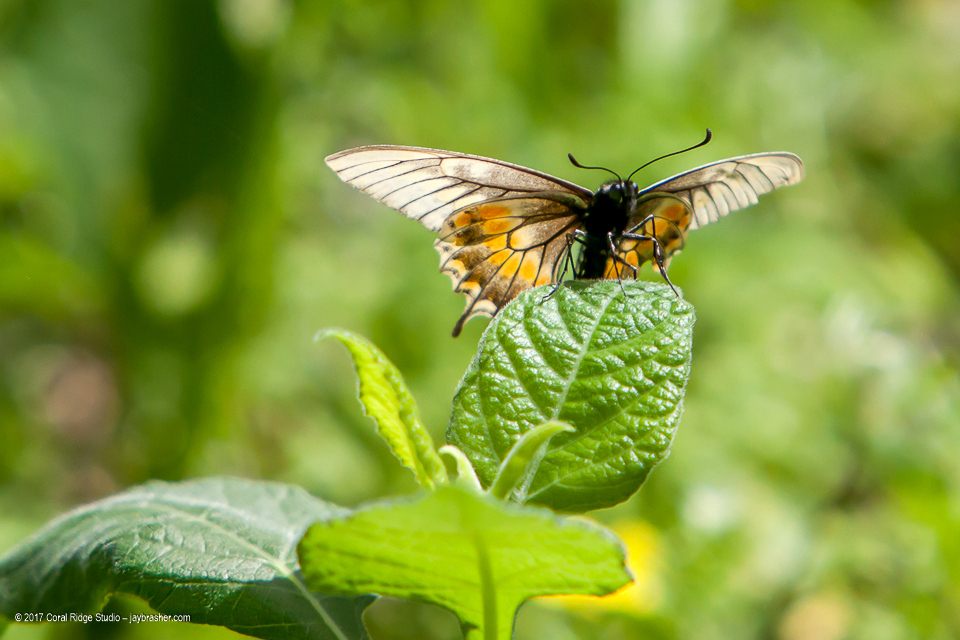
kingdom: Animalia
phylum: Arthropoda
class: Insecta
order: Lepidoptera
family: Papilionidae
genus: Papilio
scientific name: Papilio polyxenes
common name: Black swallowtail
